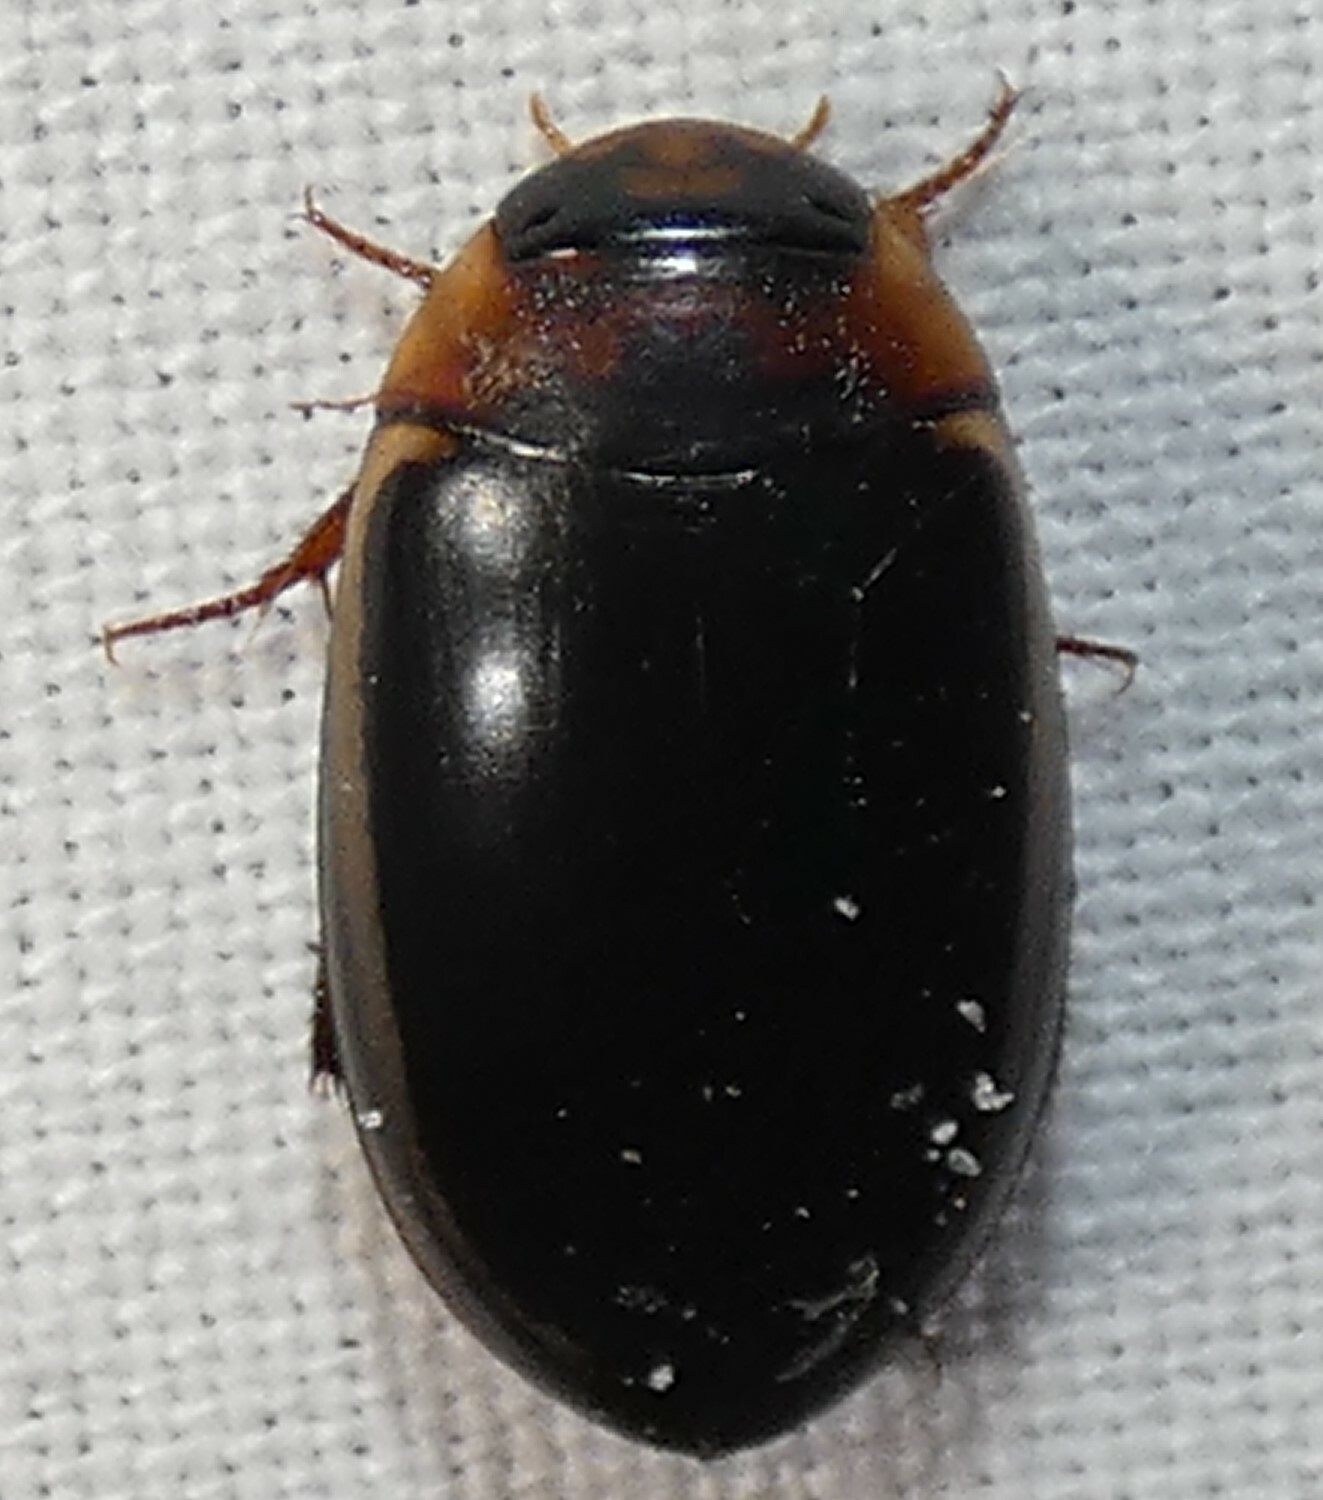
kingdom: Animalia
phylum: Arthropoda
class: Insecta
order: Coleoptera
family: Dytiscidae
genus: Hydaticus
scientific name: Hydaticus bimarginatus
